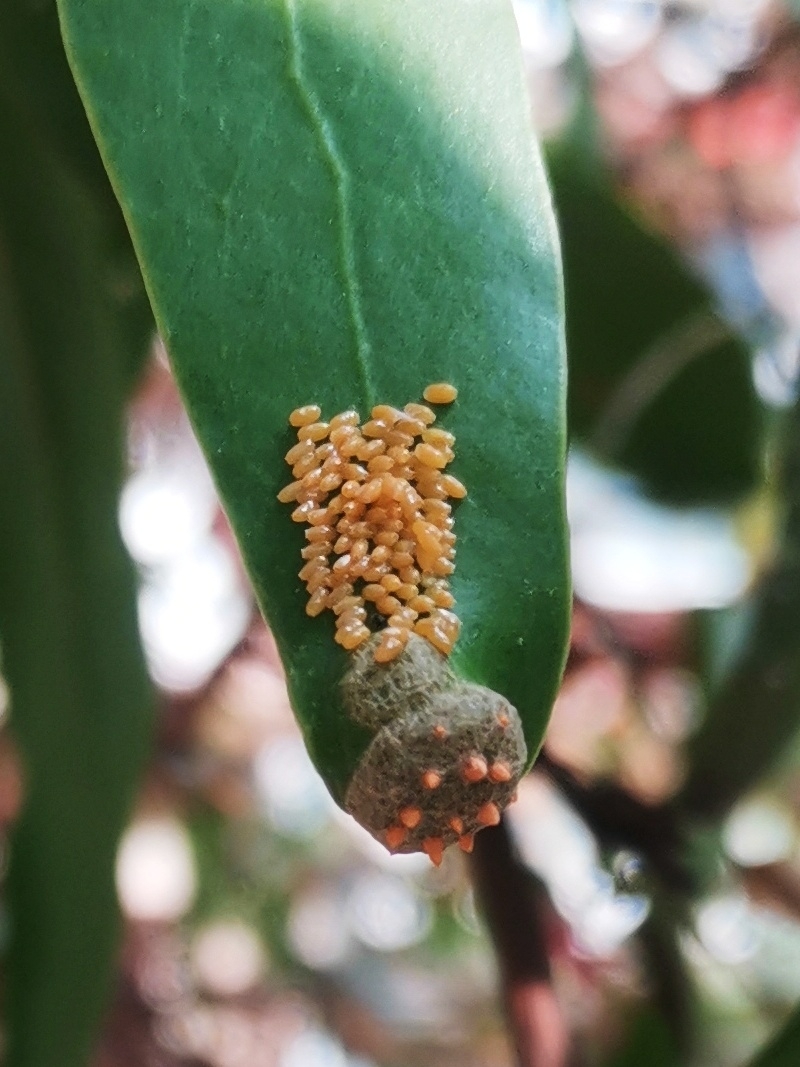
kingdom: Animalia
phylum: Arthropoda
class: Insecta
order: Lepidoptera
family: Pieridae
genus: Delias
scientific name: Delias eucharis
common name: Common jezebel
